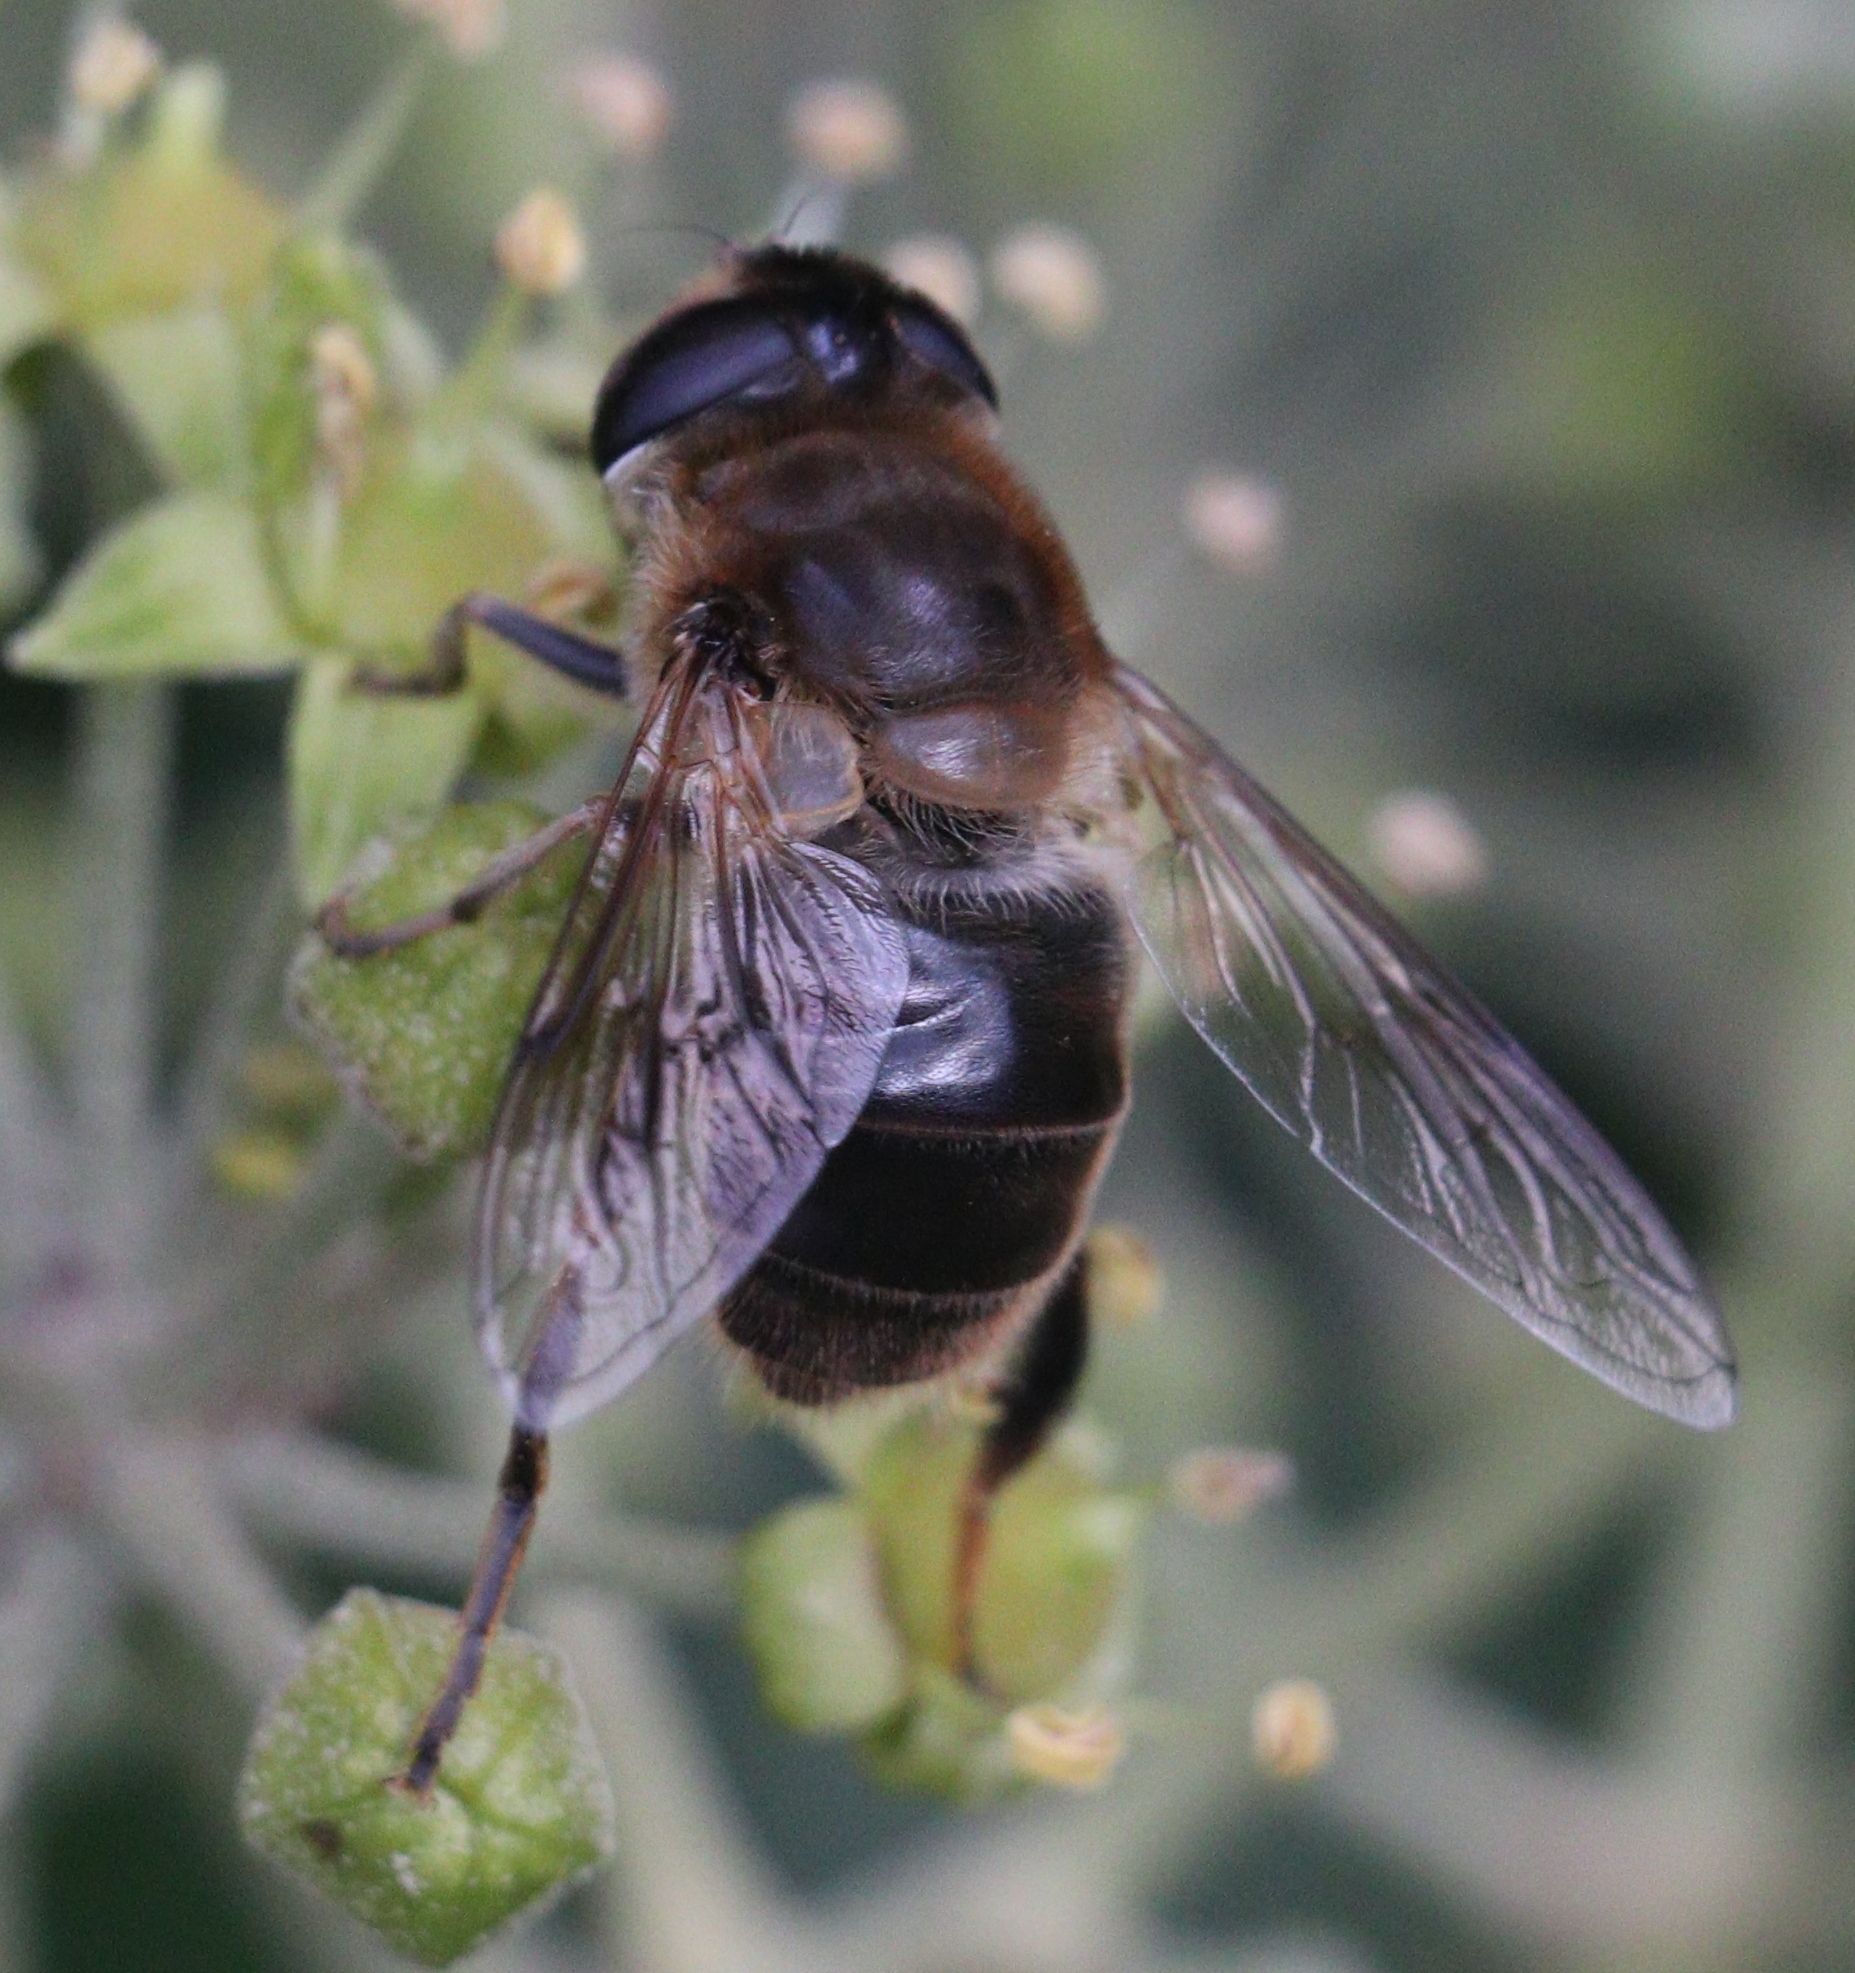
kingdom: Animalia
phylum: Arthropoda
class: Insecta
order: Diptera
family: Syrphidae
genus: Eristalis
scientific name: Eristalis tenax
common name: Drone fly
